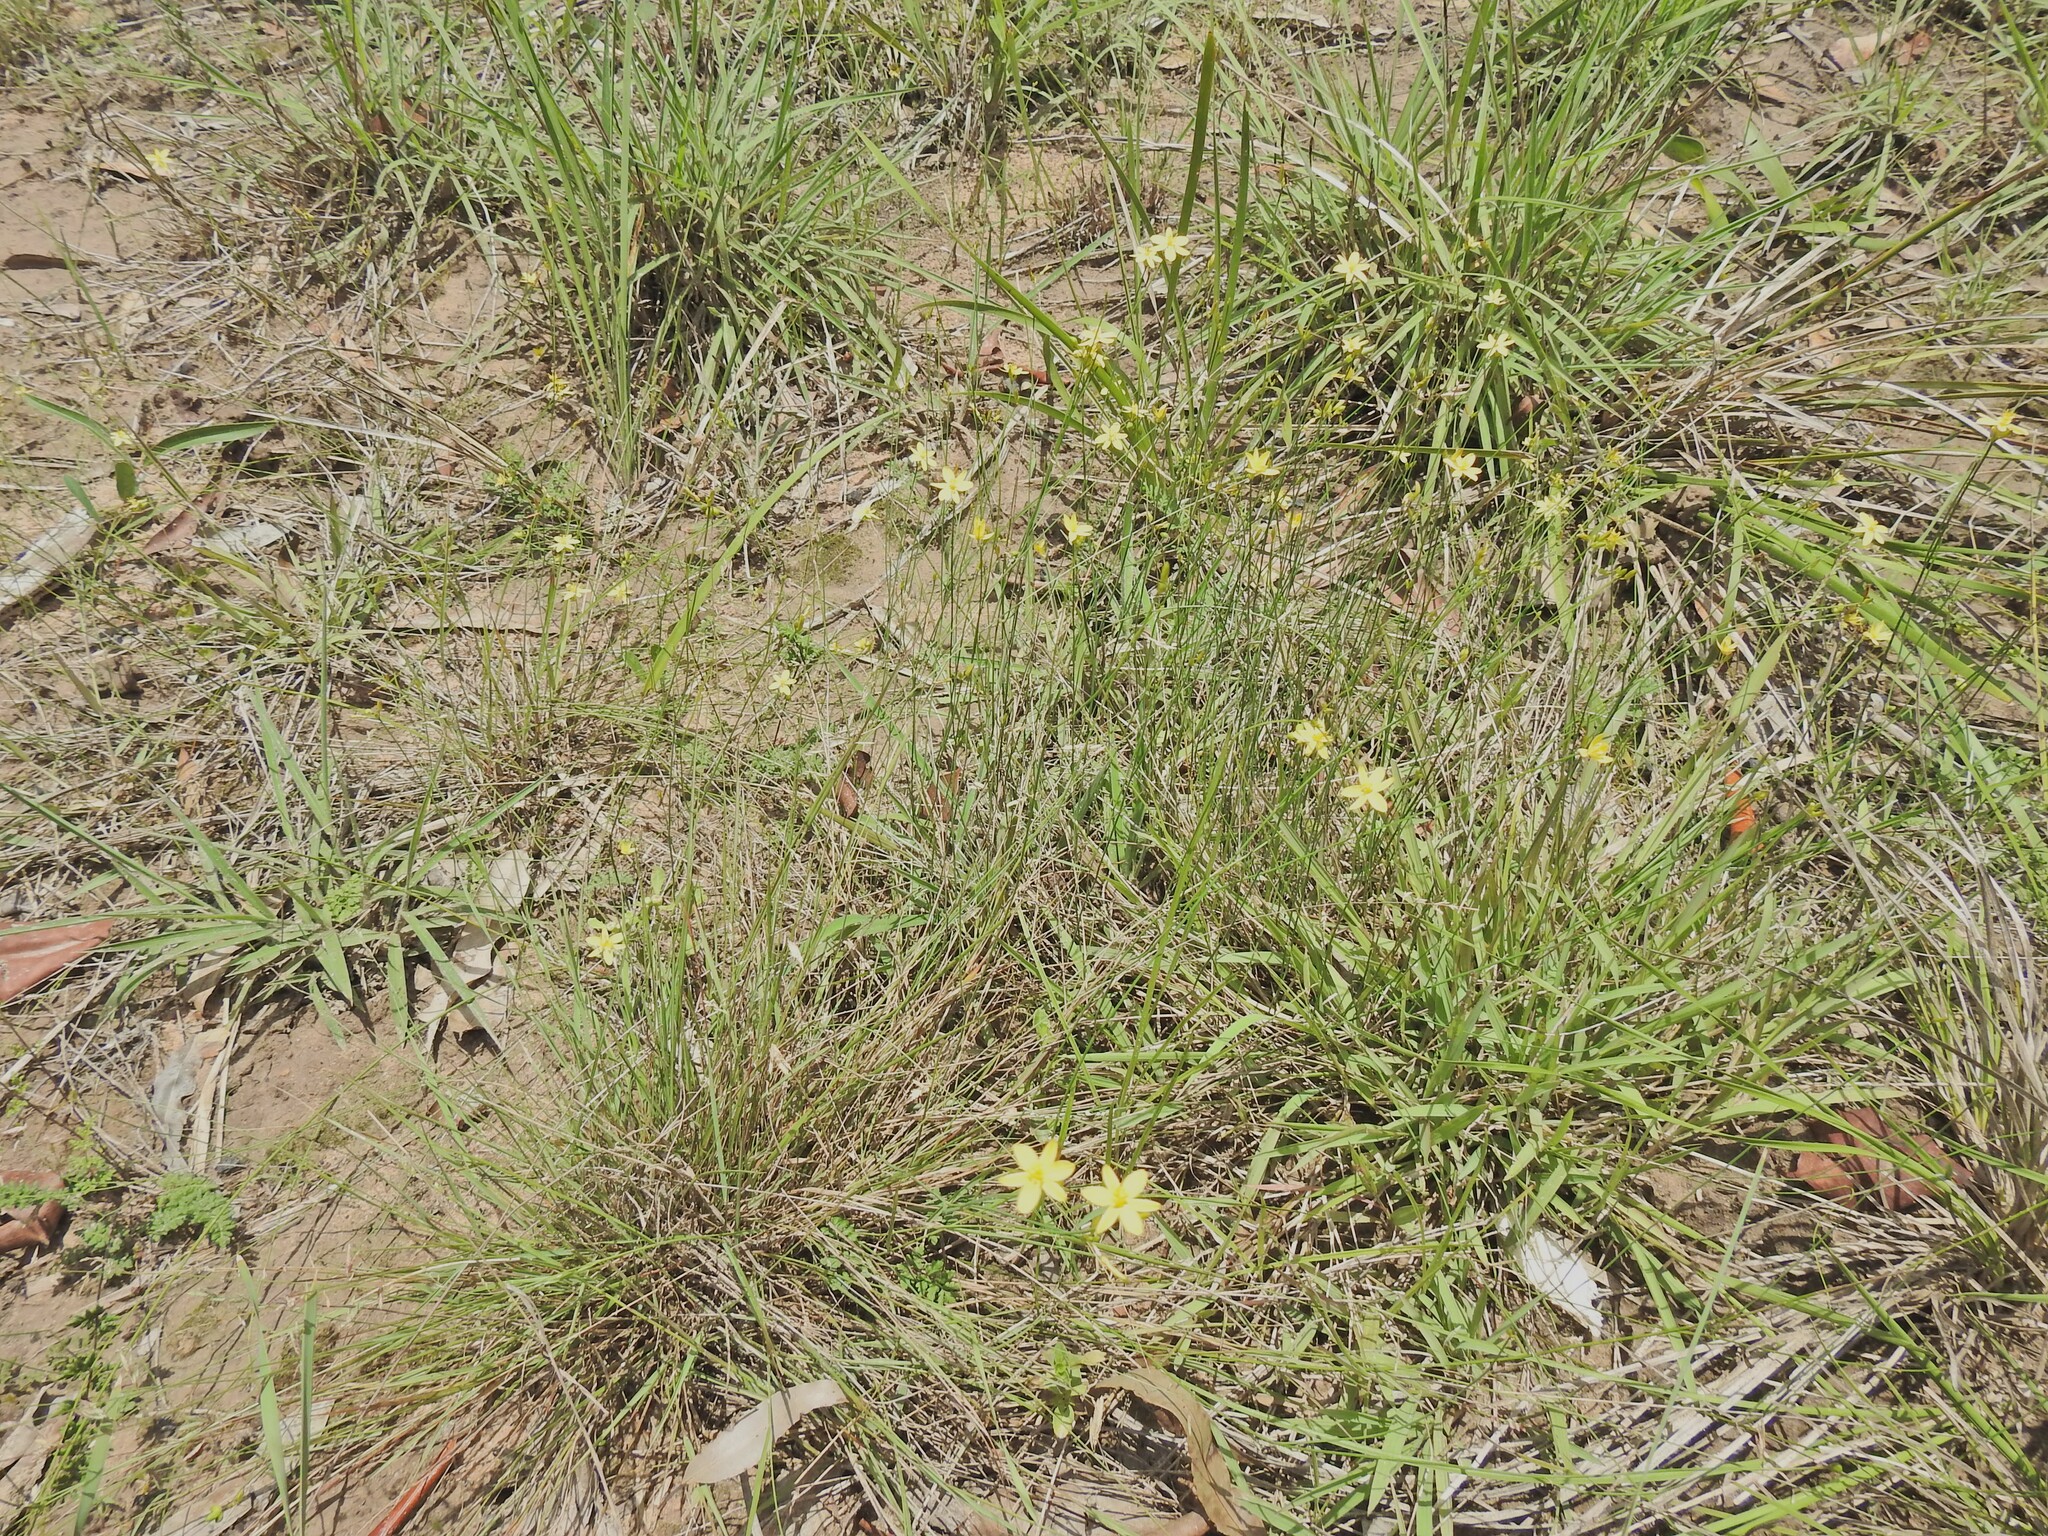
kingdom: Plantae
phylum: Tracheophyta
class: Liliopsida
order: Asparagales
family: Asphodelaceae
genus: Tricoryne
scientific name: Tricoryne elatior
